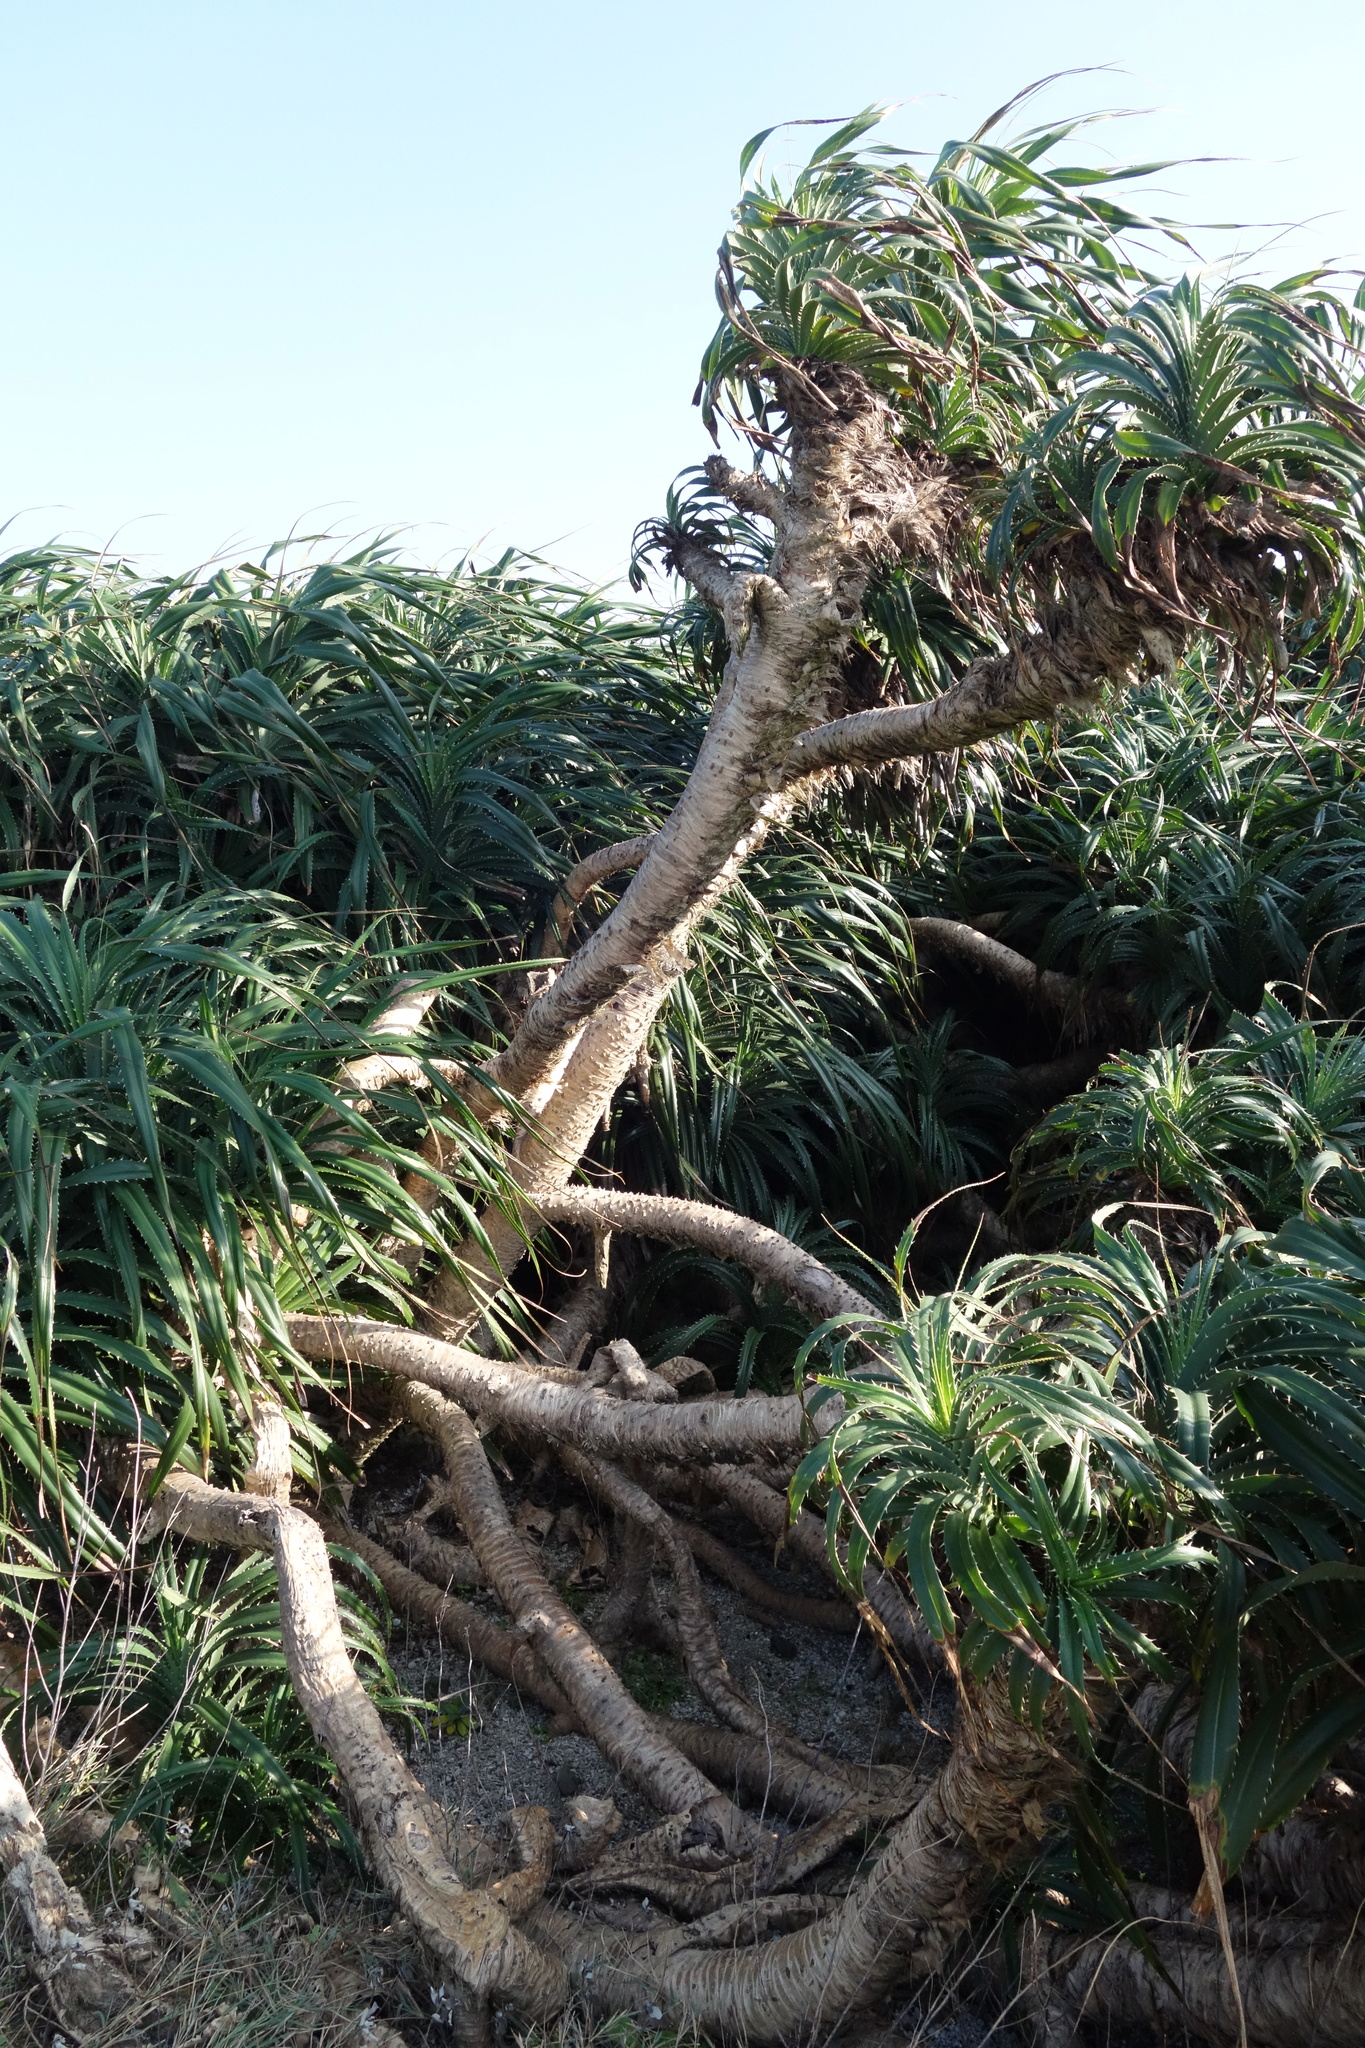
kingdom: Plantae
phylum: Tracheophyta
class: Liliopsida
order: Pandanales
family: Pandanaceae
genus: Pandanus
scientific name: Pandanus odorifer
